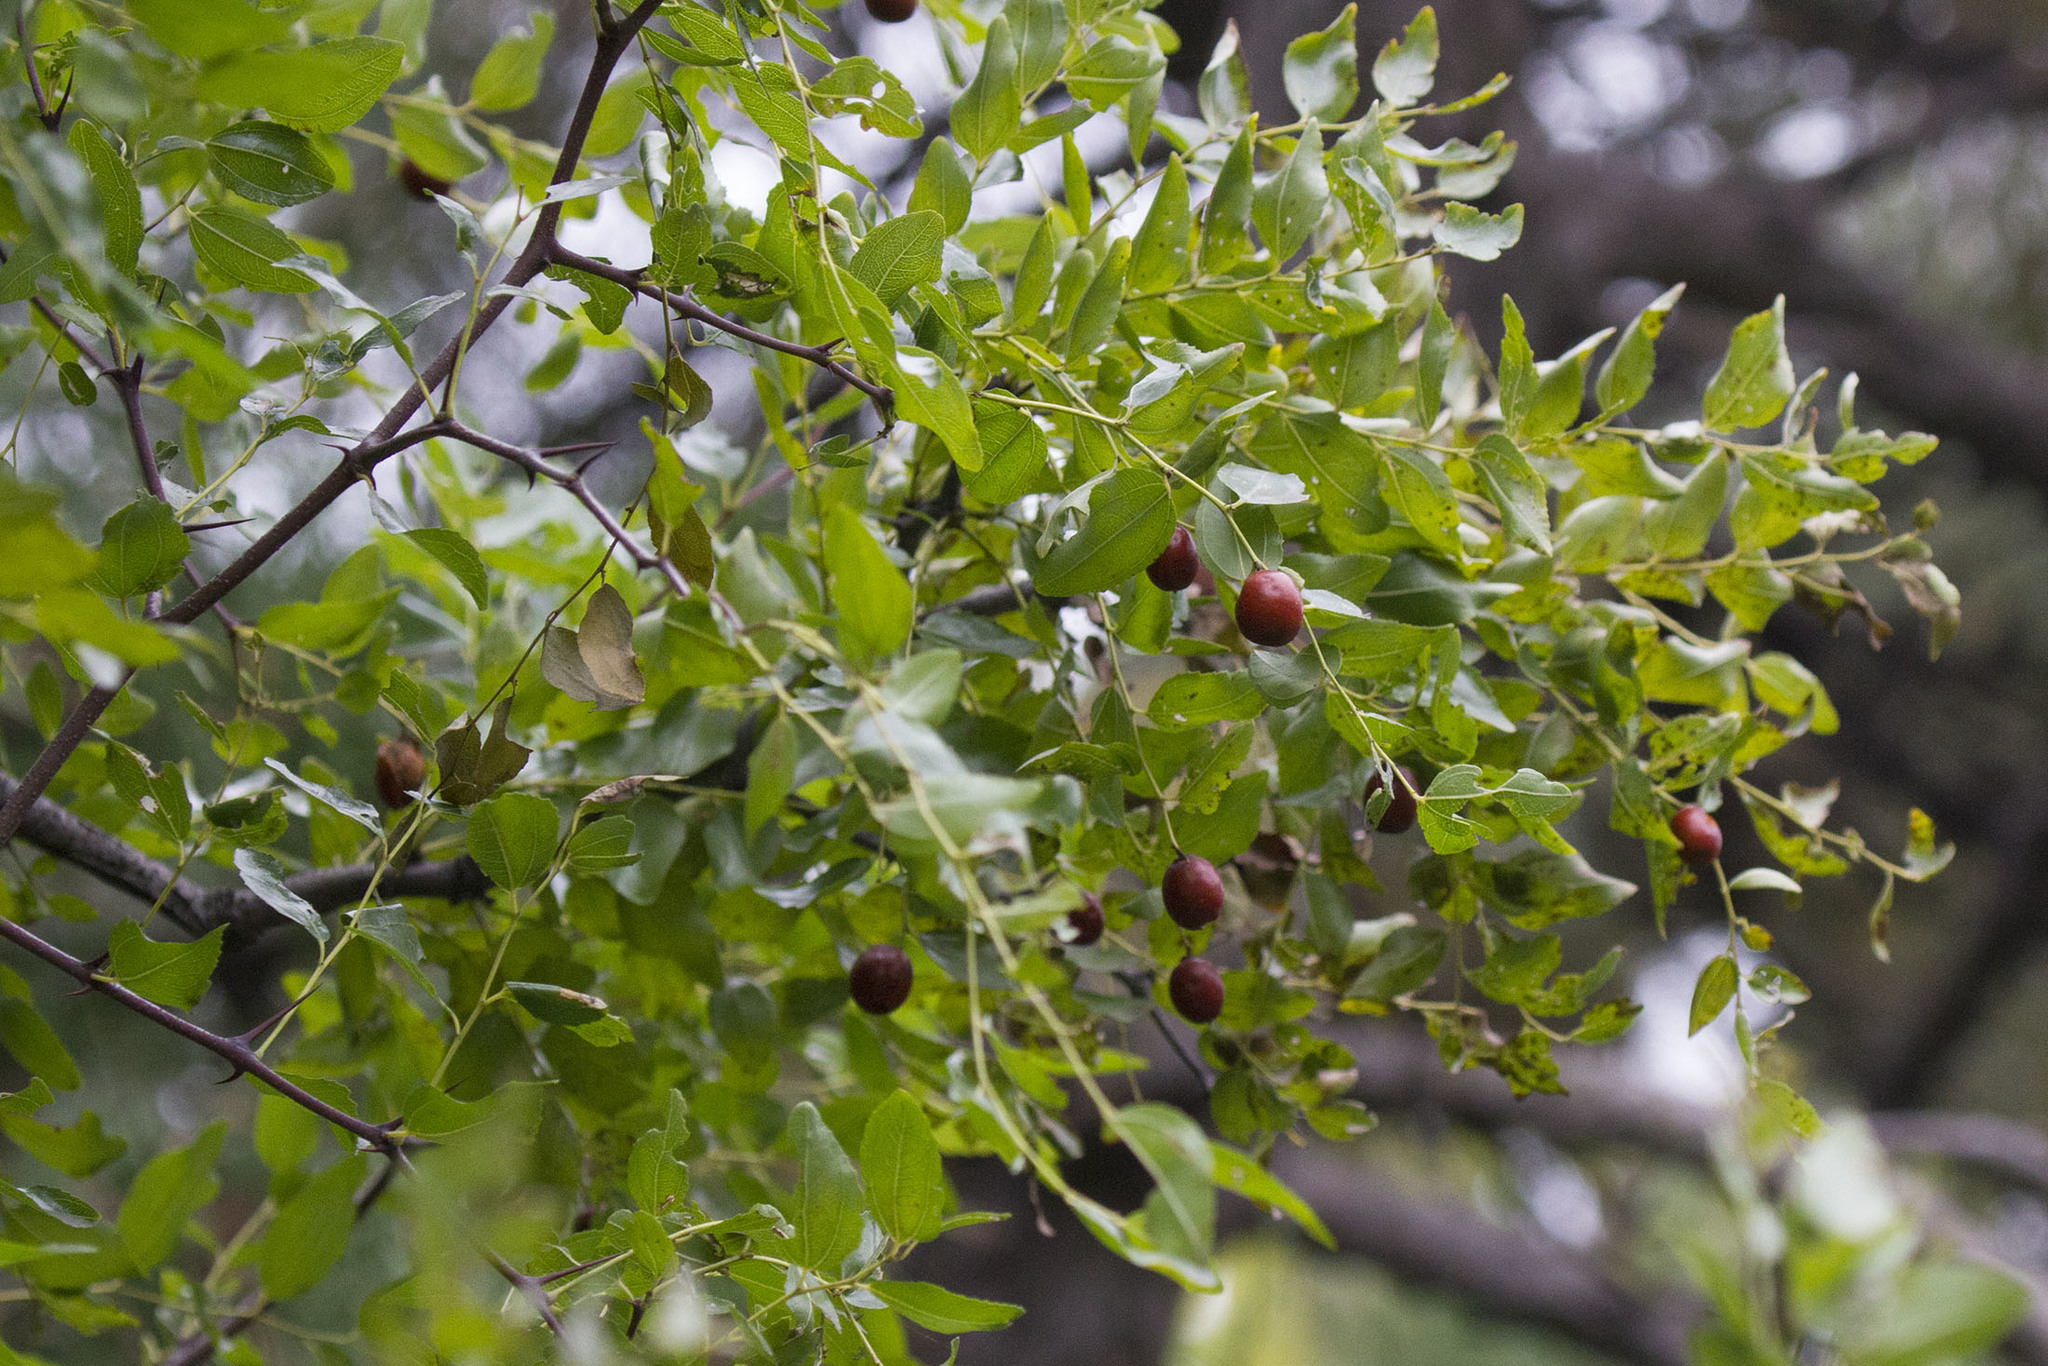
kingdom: Plantae
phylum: Tracheophyta
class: Magnoliopsida
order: Rosales
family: Rhamnaceae
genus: Ziziphus
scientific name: Ziziphus jujuba
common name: Jujube red date
